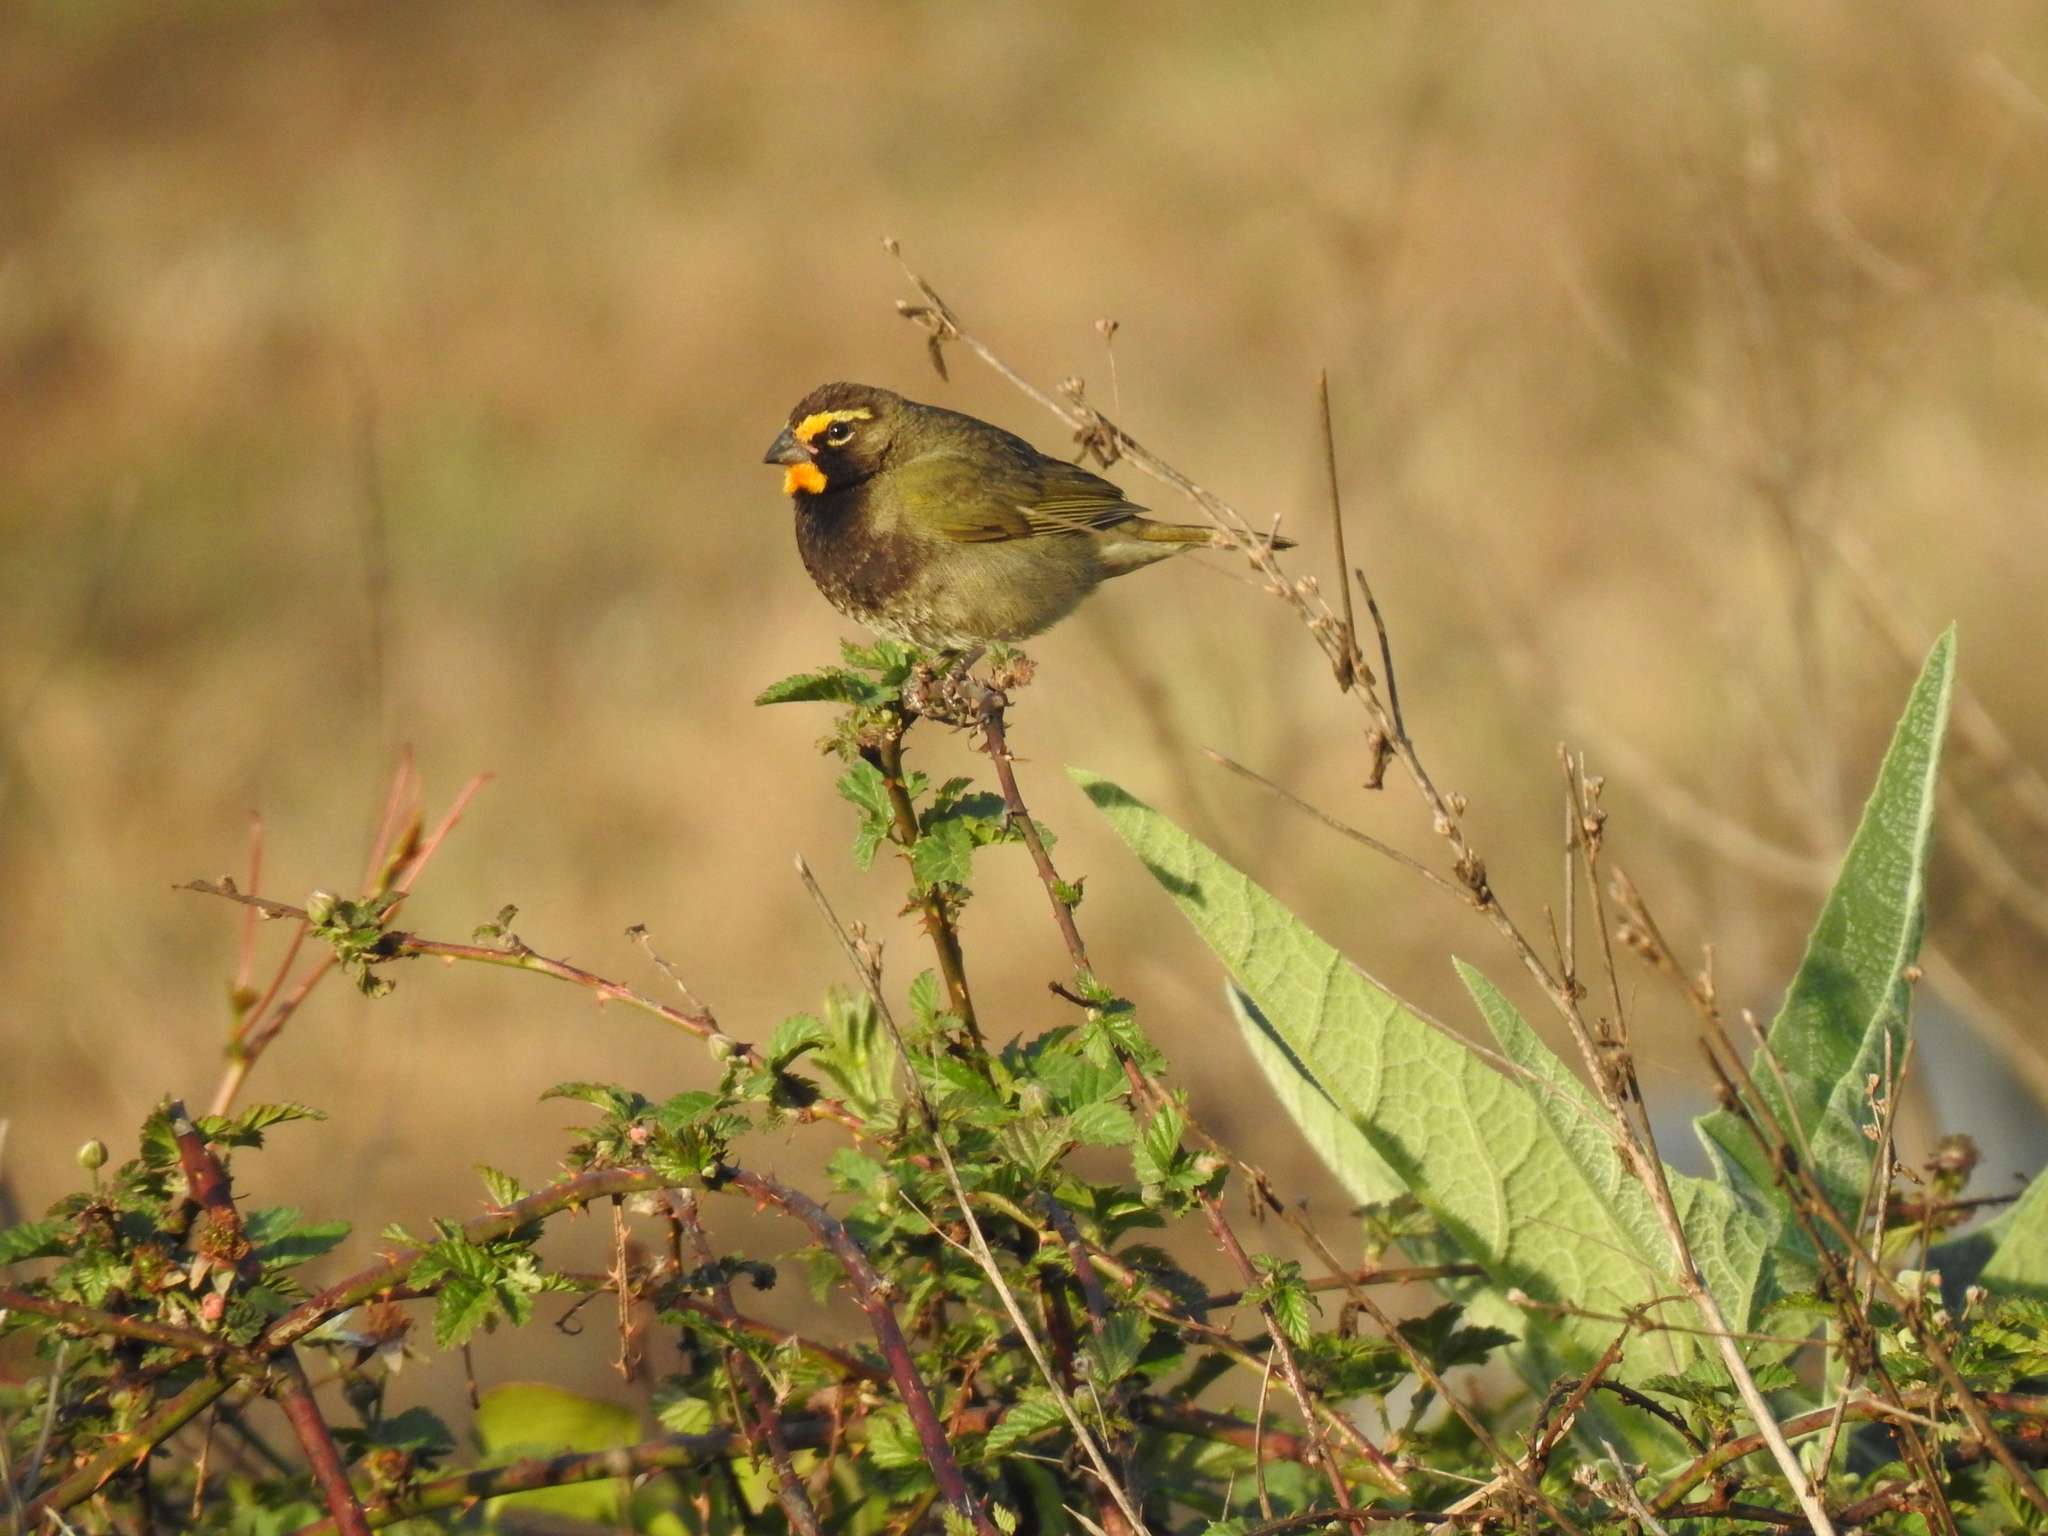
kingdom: Animalia
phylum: Chordata
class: Aves
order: Passeriformes
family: Thraupidae
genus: Tiaris
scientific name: Tiaris olivaceus
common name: Yellow-faced grassquit
